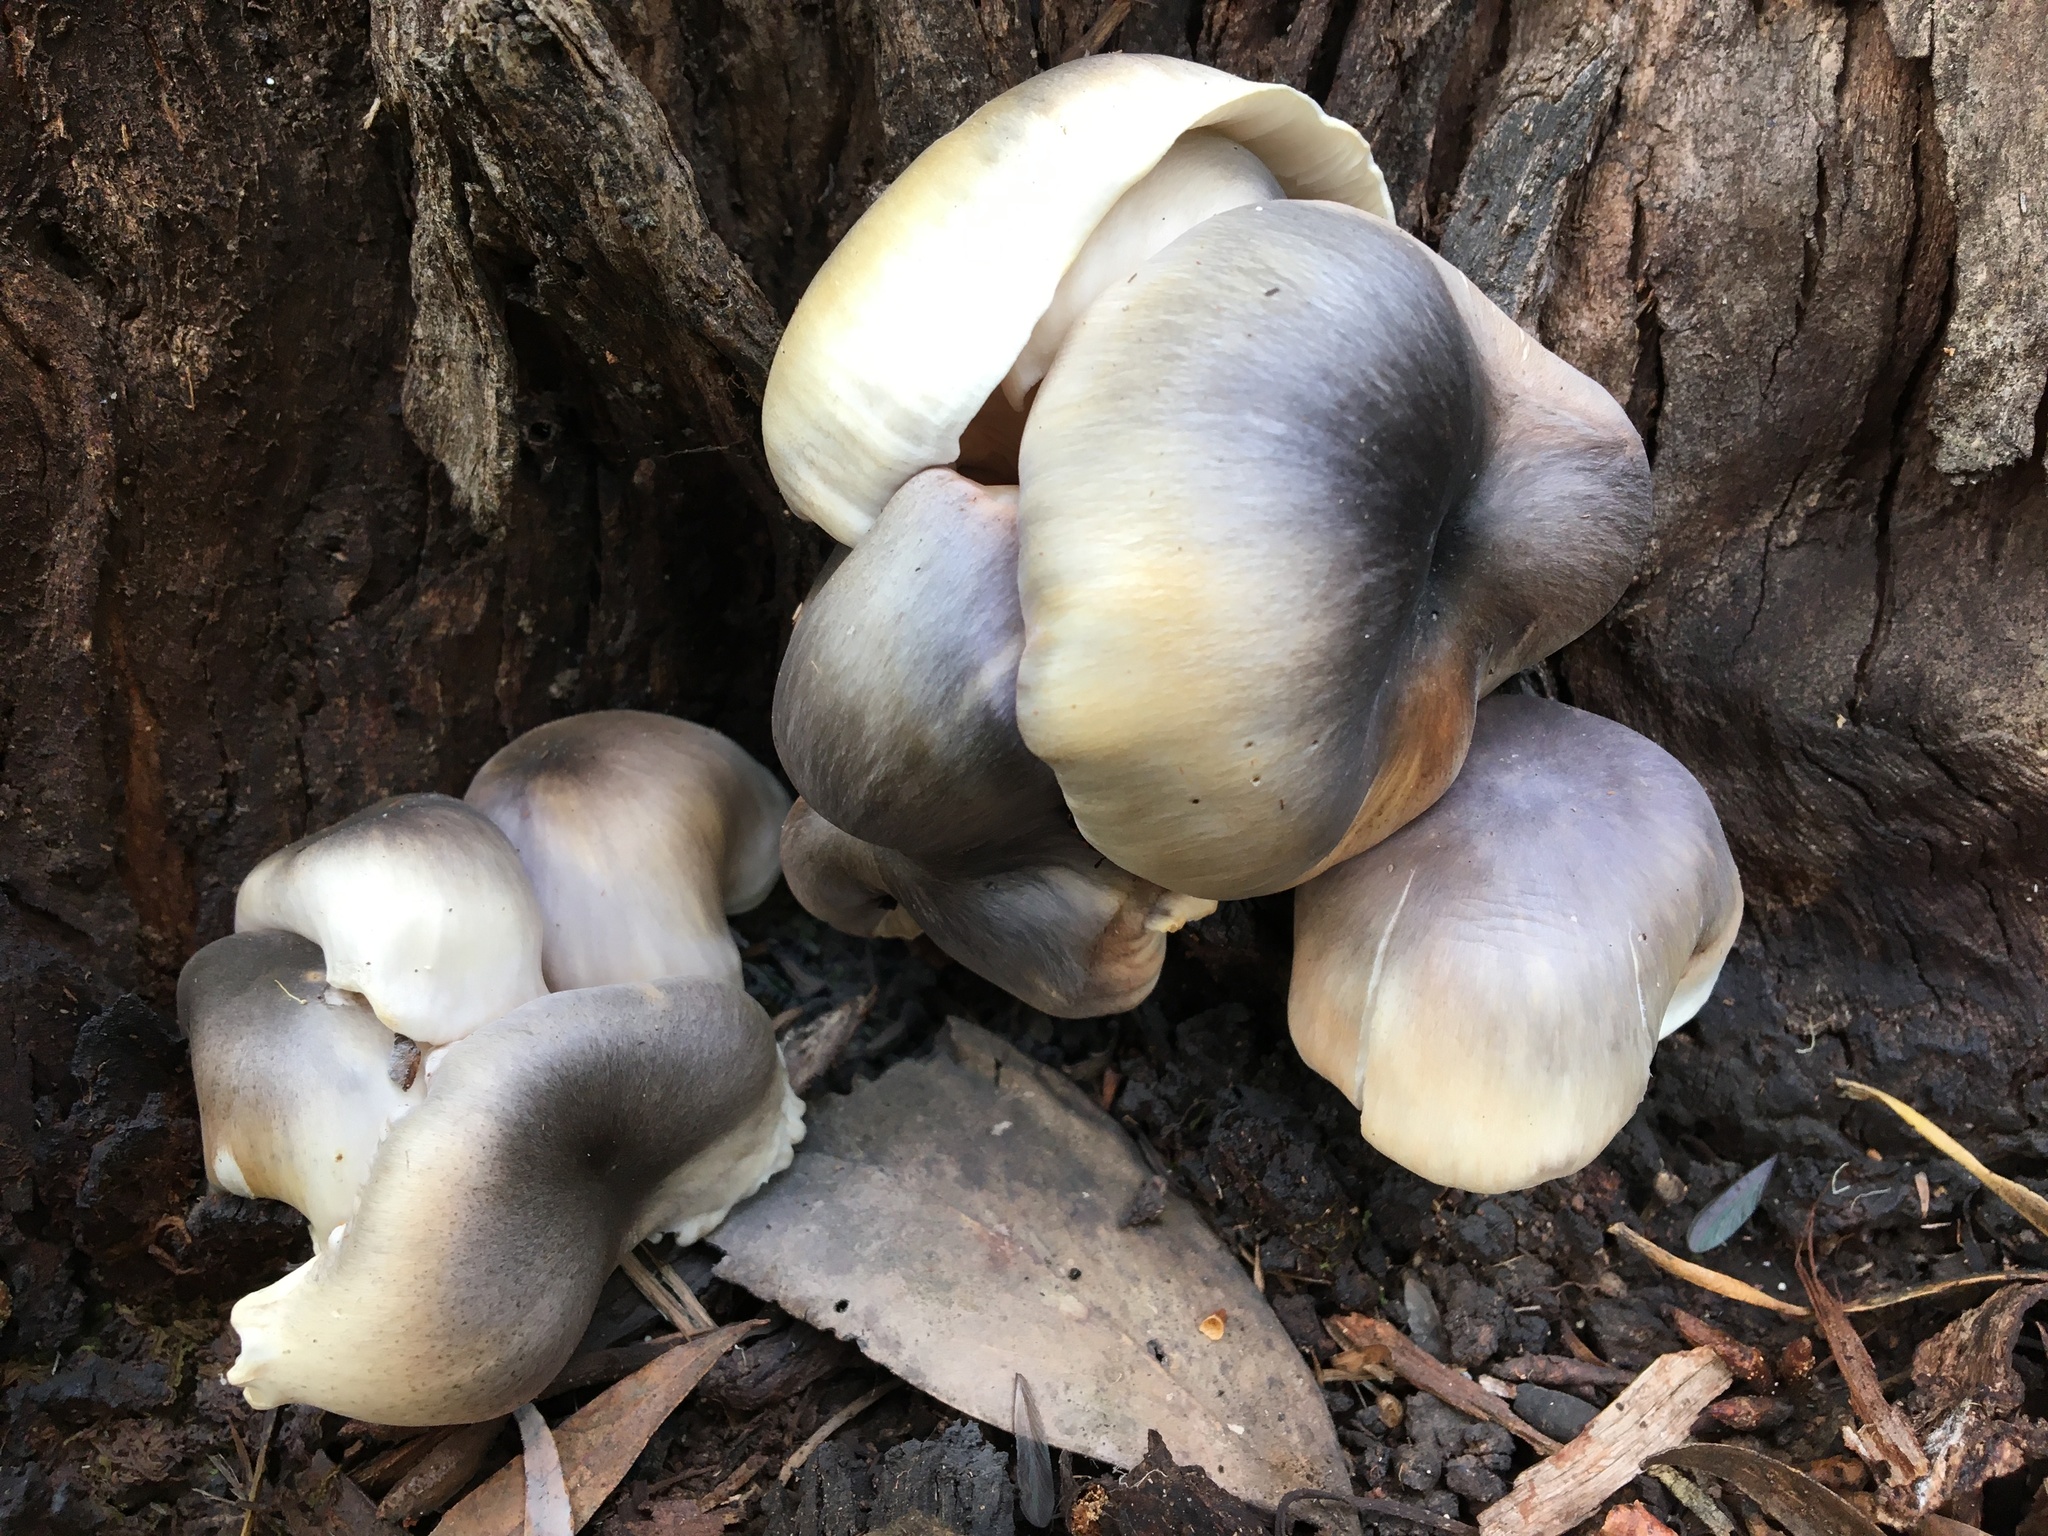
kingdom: Fungi
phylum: Basidiomycota
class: Agaricomycetes
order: Agaricales
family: Omphalotaceae
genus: Omphalotus
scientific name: Omphalotus nidiformis
